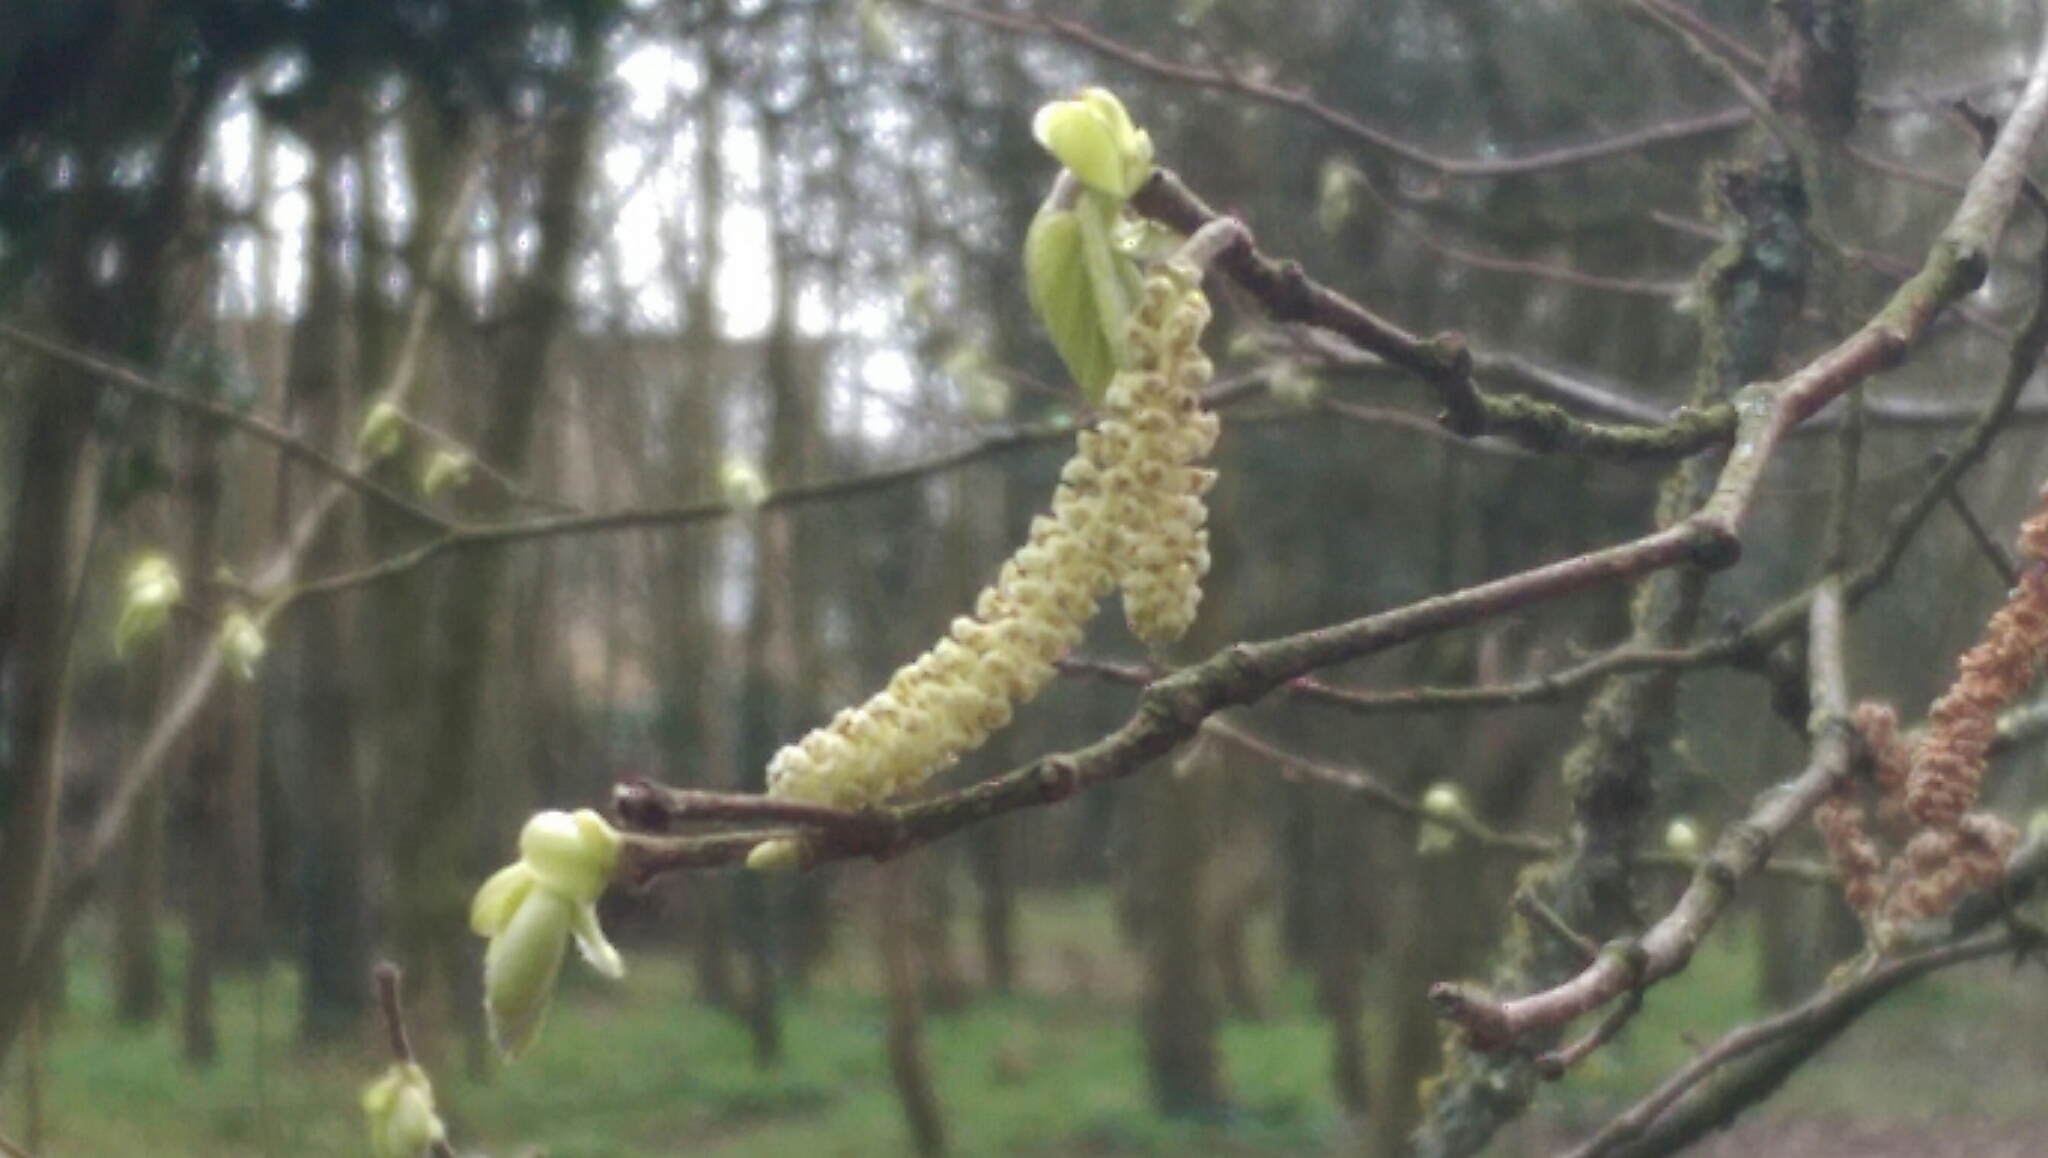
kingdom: Plantae
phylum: Tracheophyta
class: Magnoliopsida
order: Fagales
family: Betulaceae
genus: Corylus
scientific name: Corylus avellana
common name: European hazel
